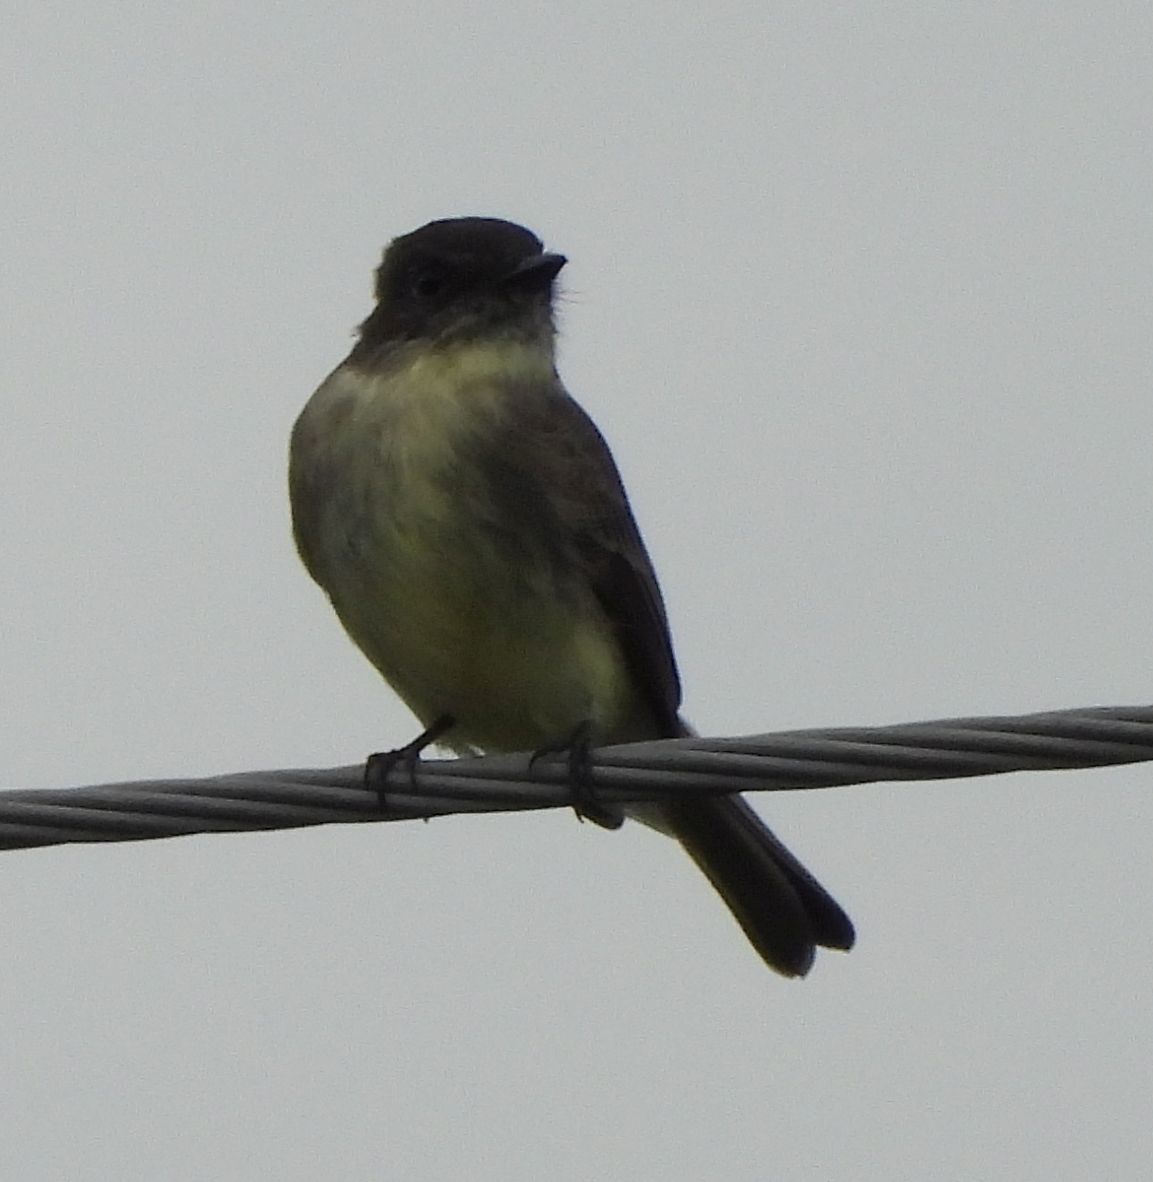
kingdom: Animalia
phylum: Chordata
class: Aves
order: Passeriformes
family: Tyrannidae
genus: Sayornis
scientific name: Sayornis phoebe
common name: Eastern phoebe
